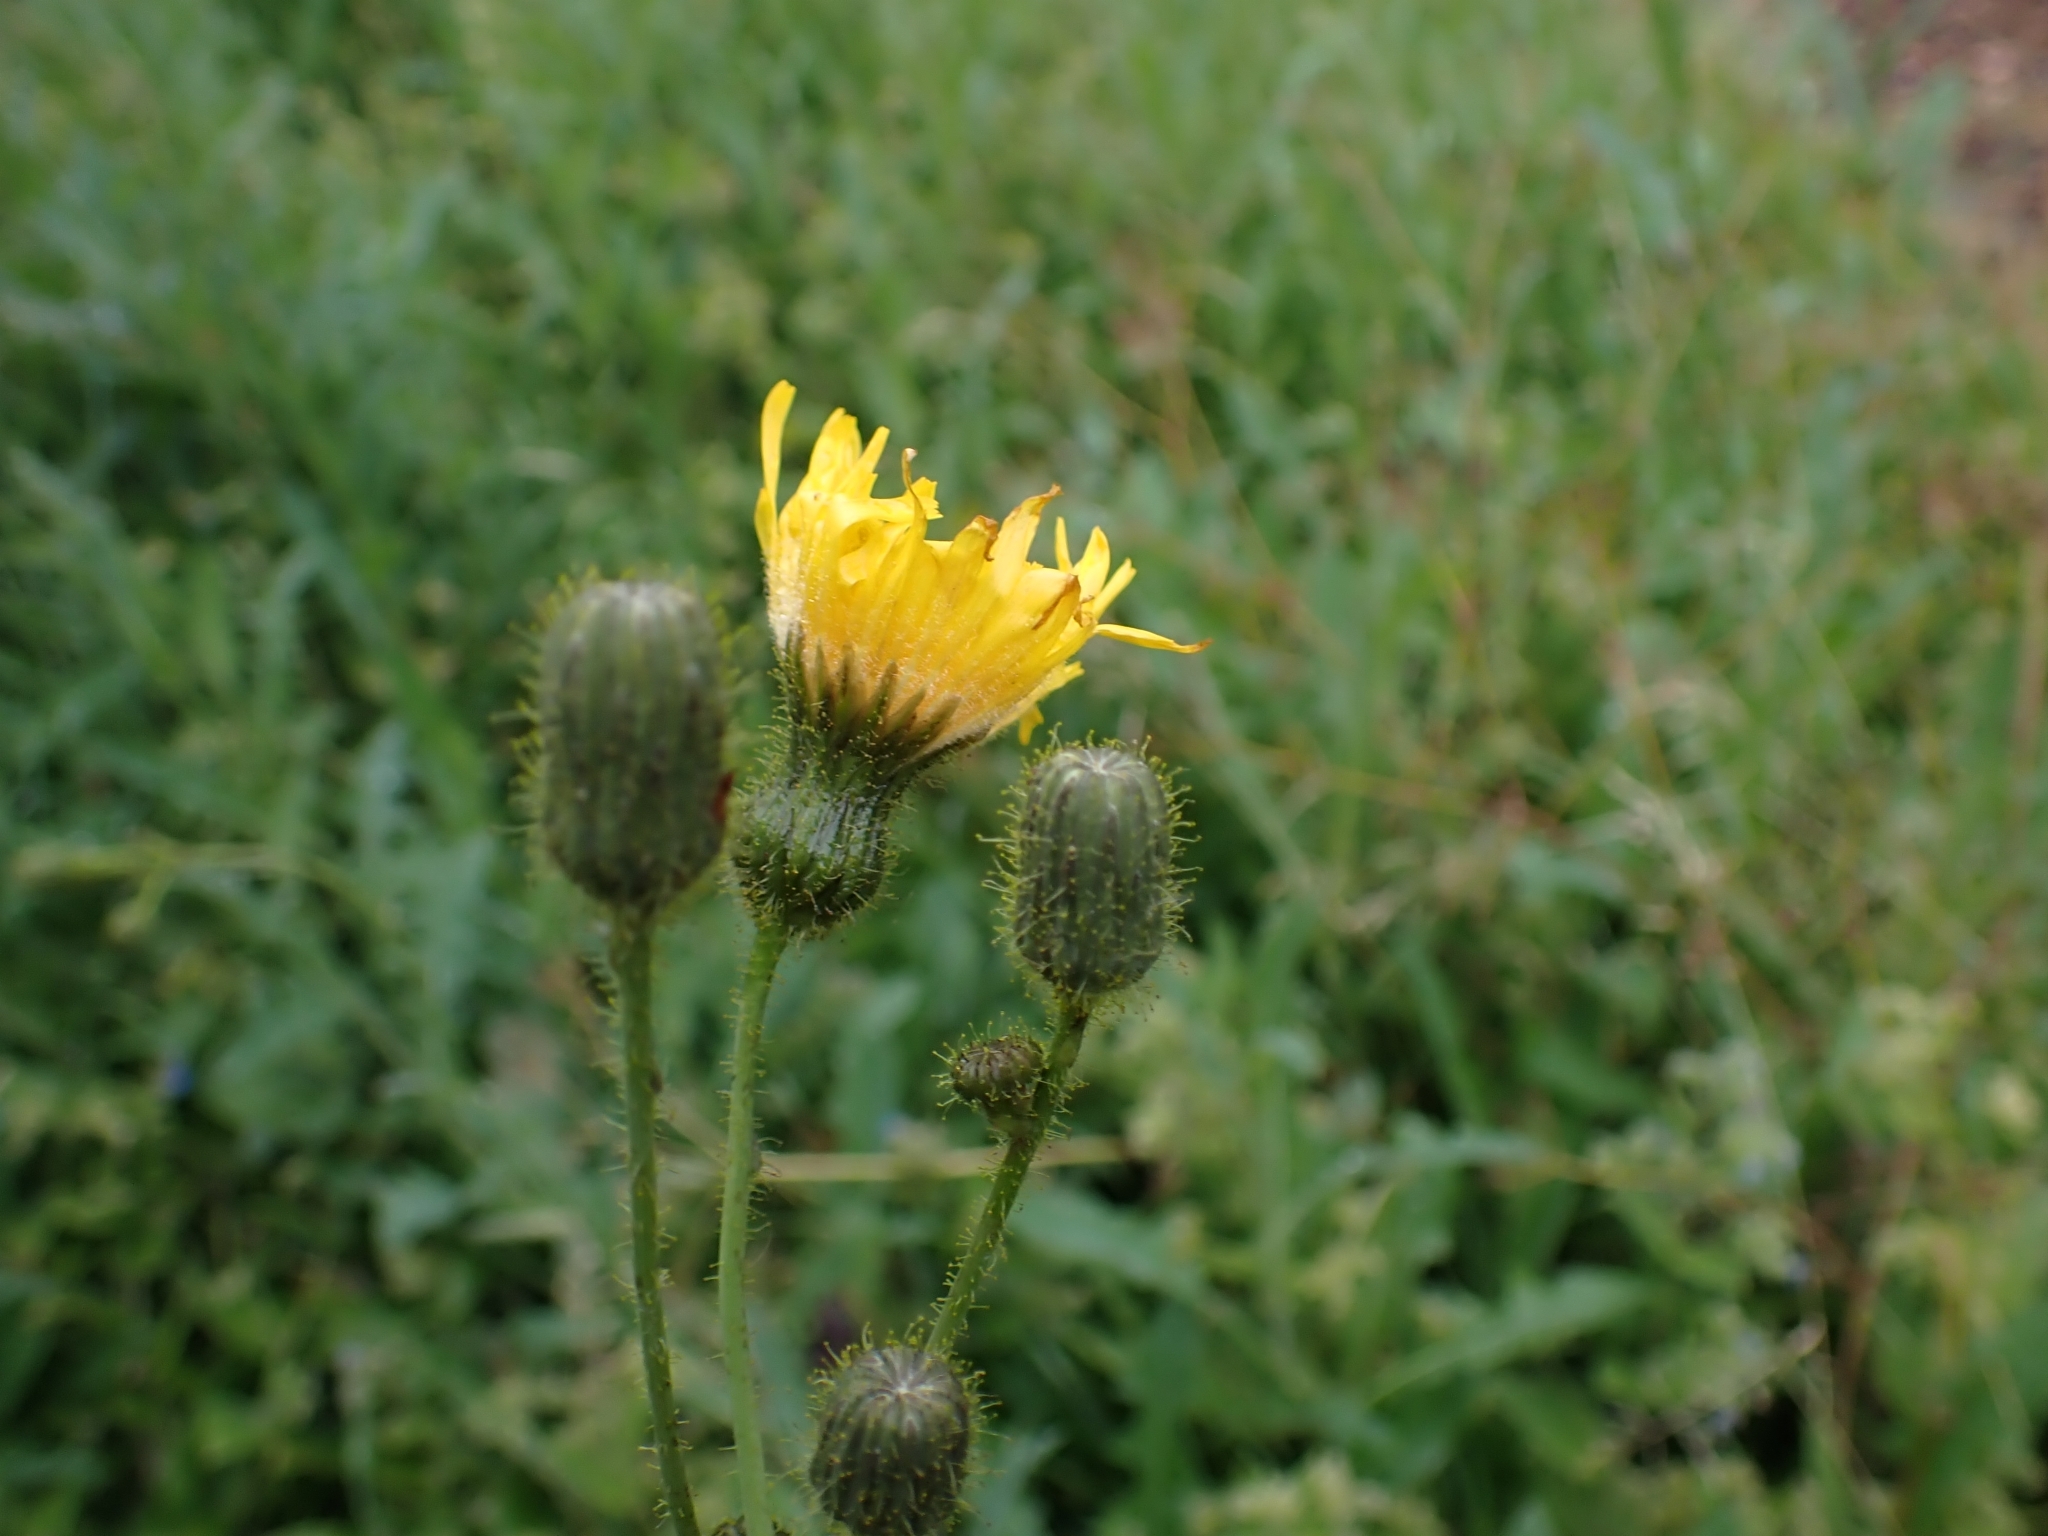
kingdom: Plantae
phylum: Tracheophyta
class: Magnoliopsida
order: Asterales
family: Asteraceae
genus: Sonchus
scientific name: Sonchus arvensis
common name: Perennial sow-thistle
